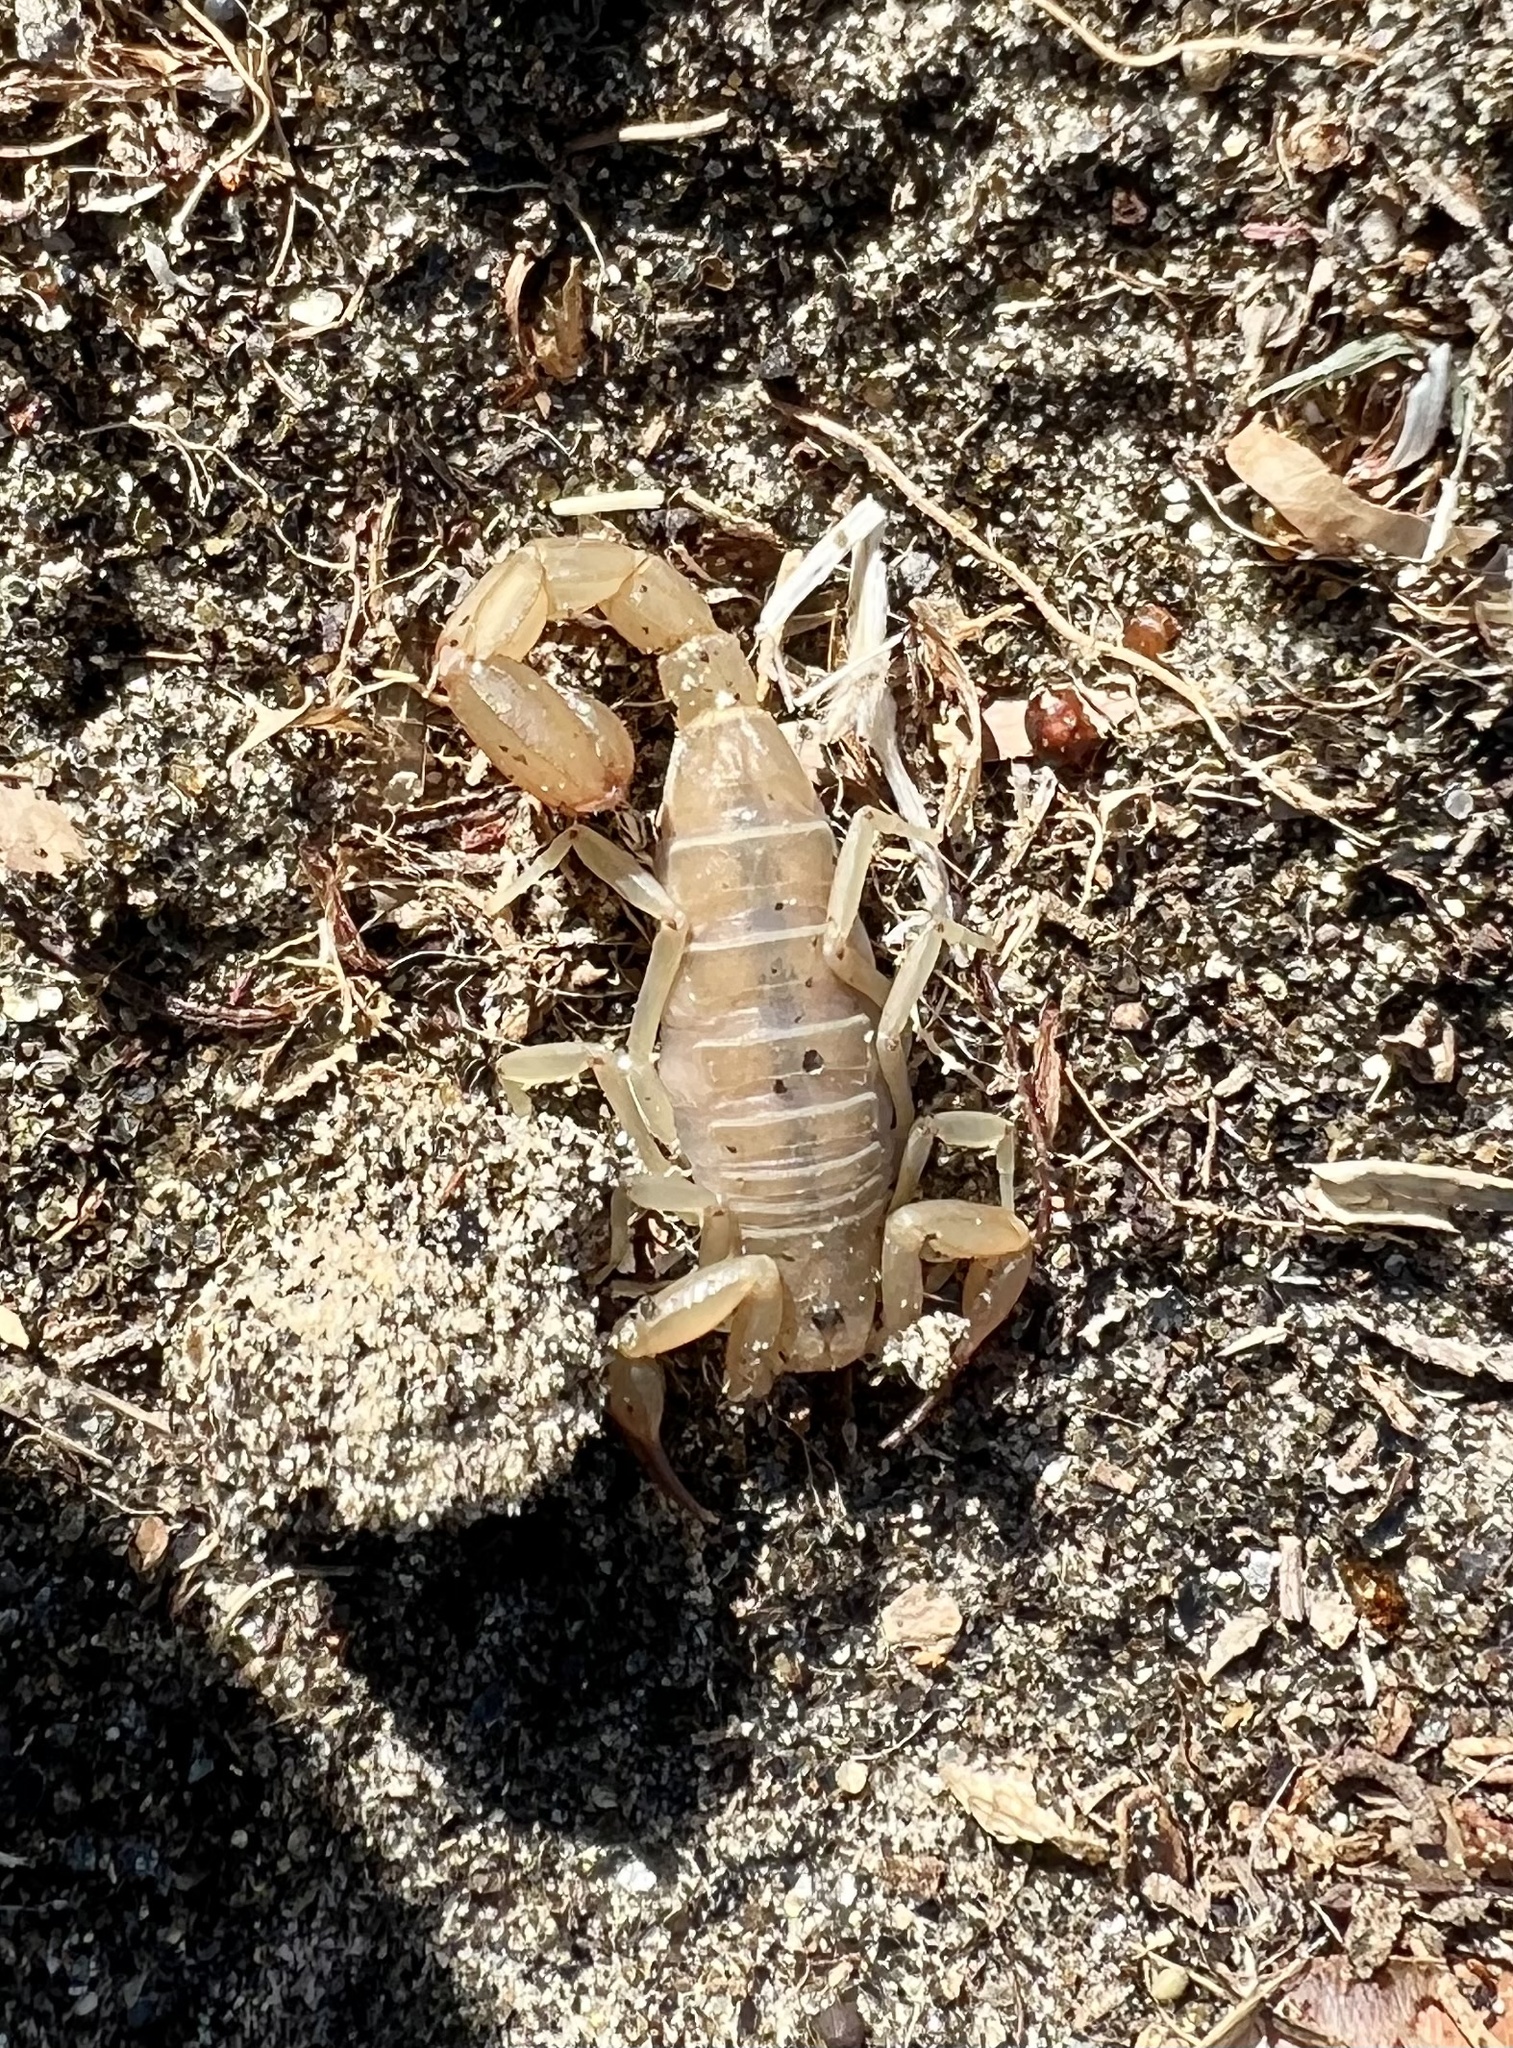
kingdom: Animalia
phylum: Arthropoda
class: Arachnida
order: Scorpiones
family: Vaejovidae
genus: Paravaejovis
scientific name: Paravaejovis waeringi
